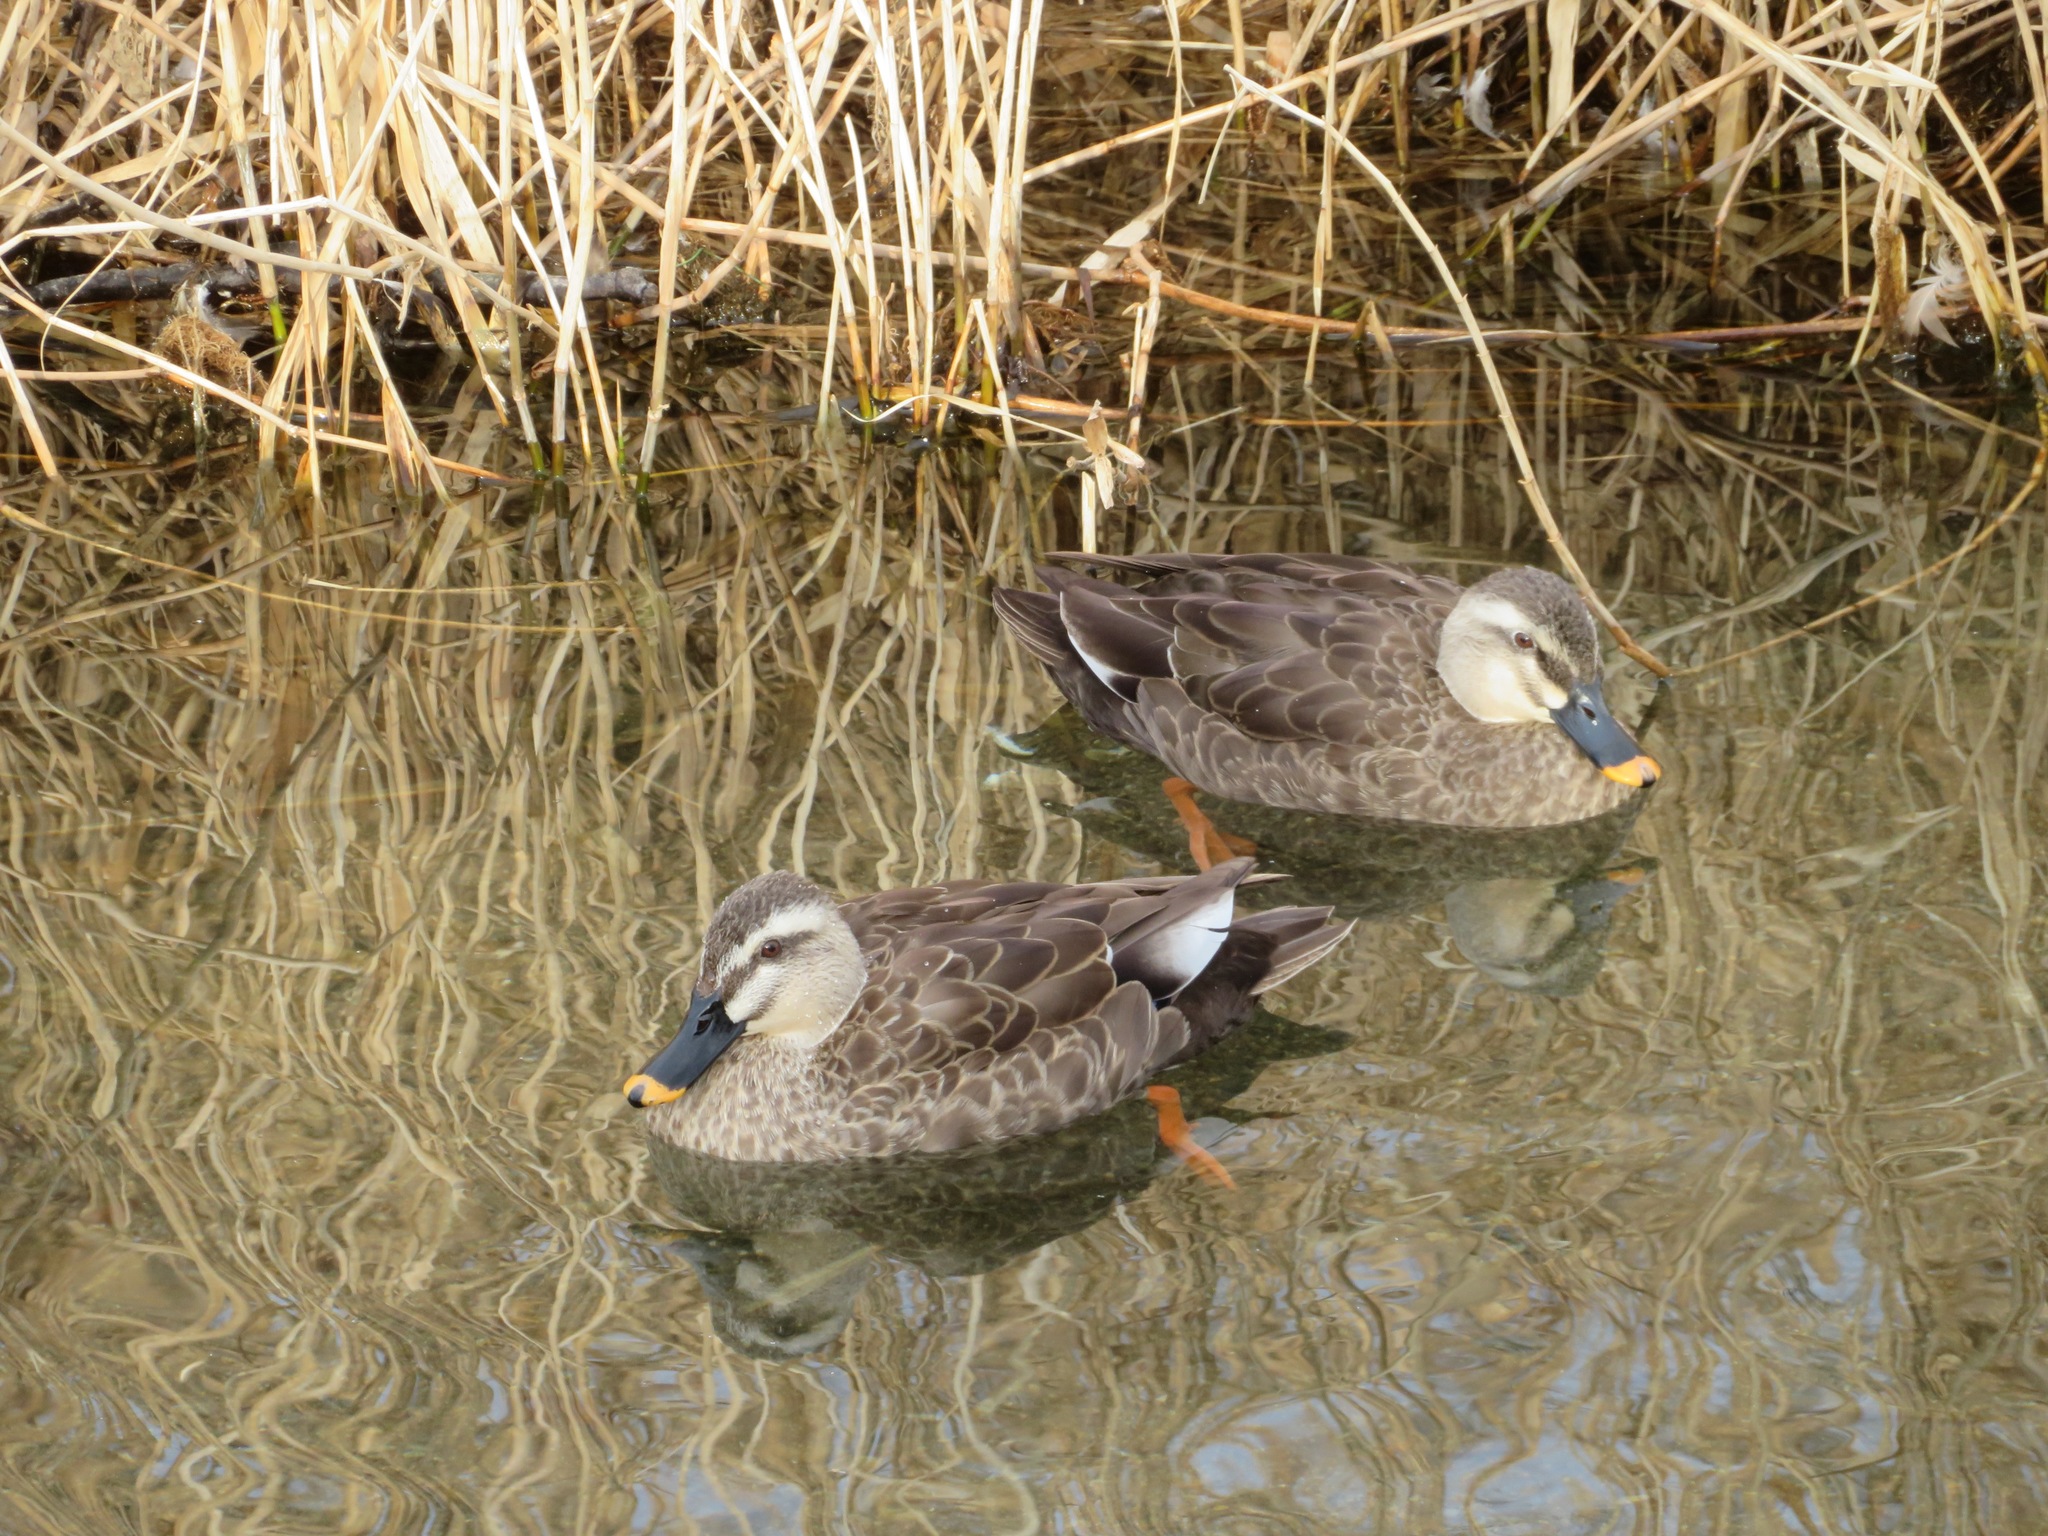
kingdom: Animalia
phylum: Chordata
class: Aves
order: Anseriformes
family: Anatidae
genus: Anas
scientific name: Anas zonorhyncha
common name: Eastern spot-billed duck
